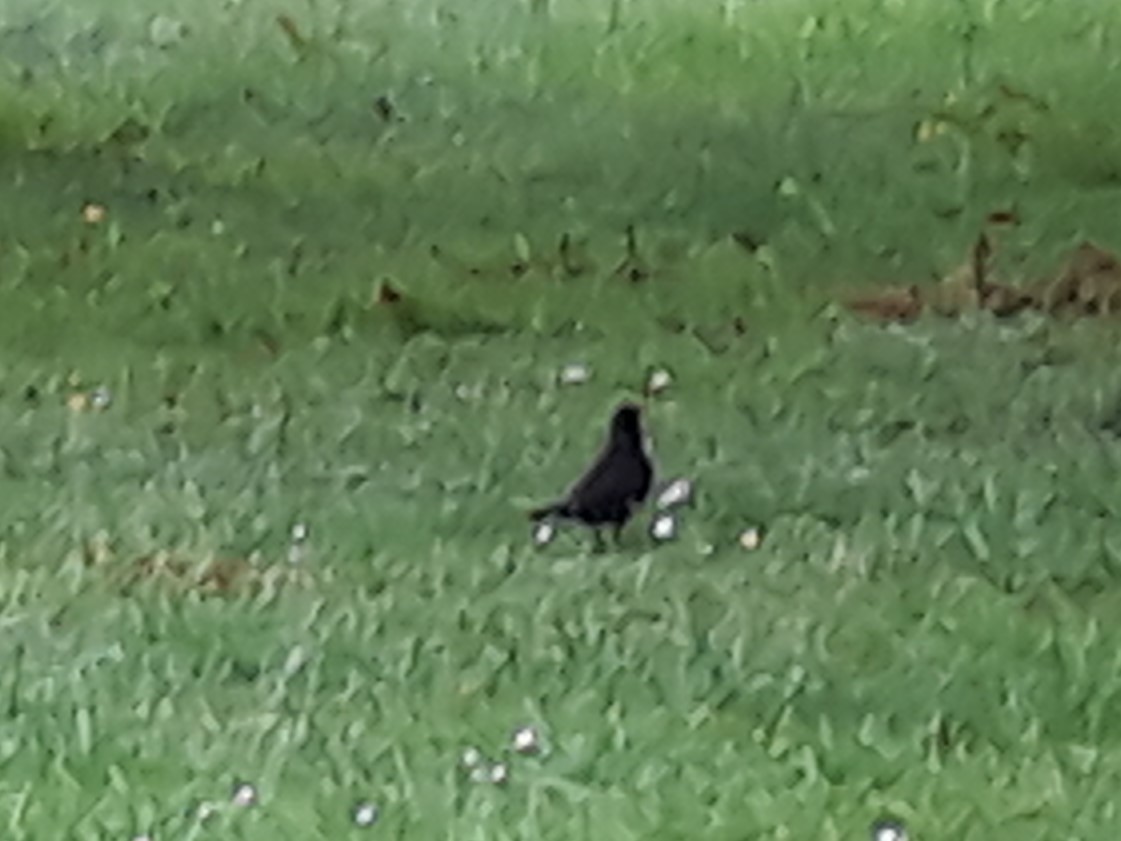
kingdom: Animalia
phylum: Chordata
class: Aves
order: Passeriformes
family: Turdidae
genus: Turdus
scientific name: Turdus merula
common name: Common blackbird
